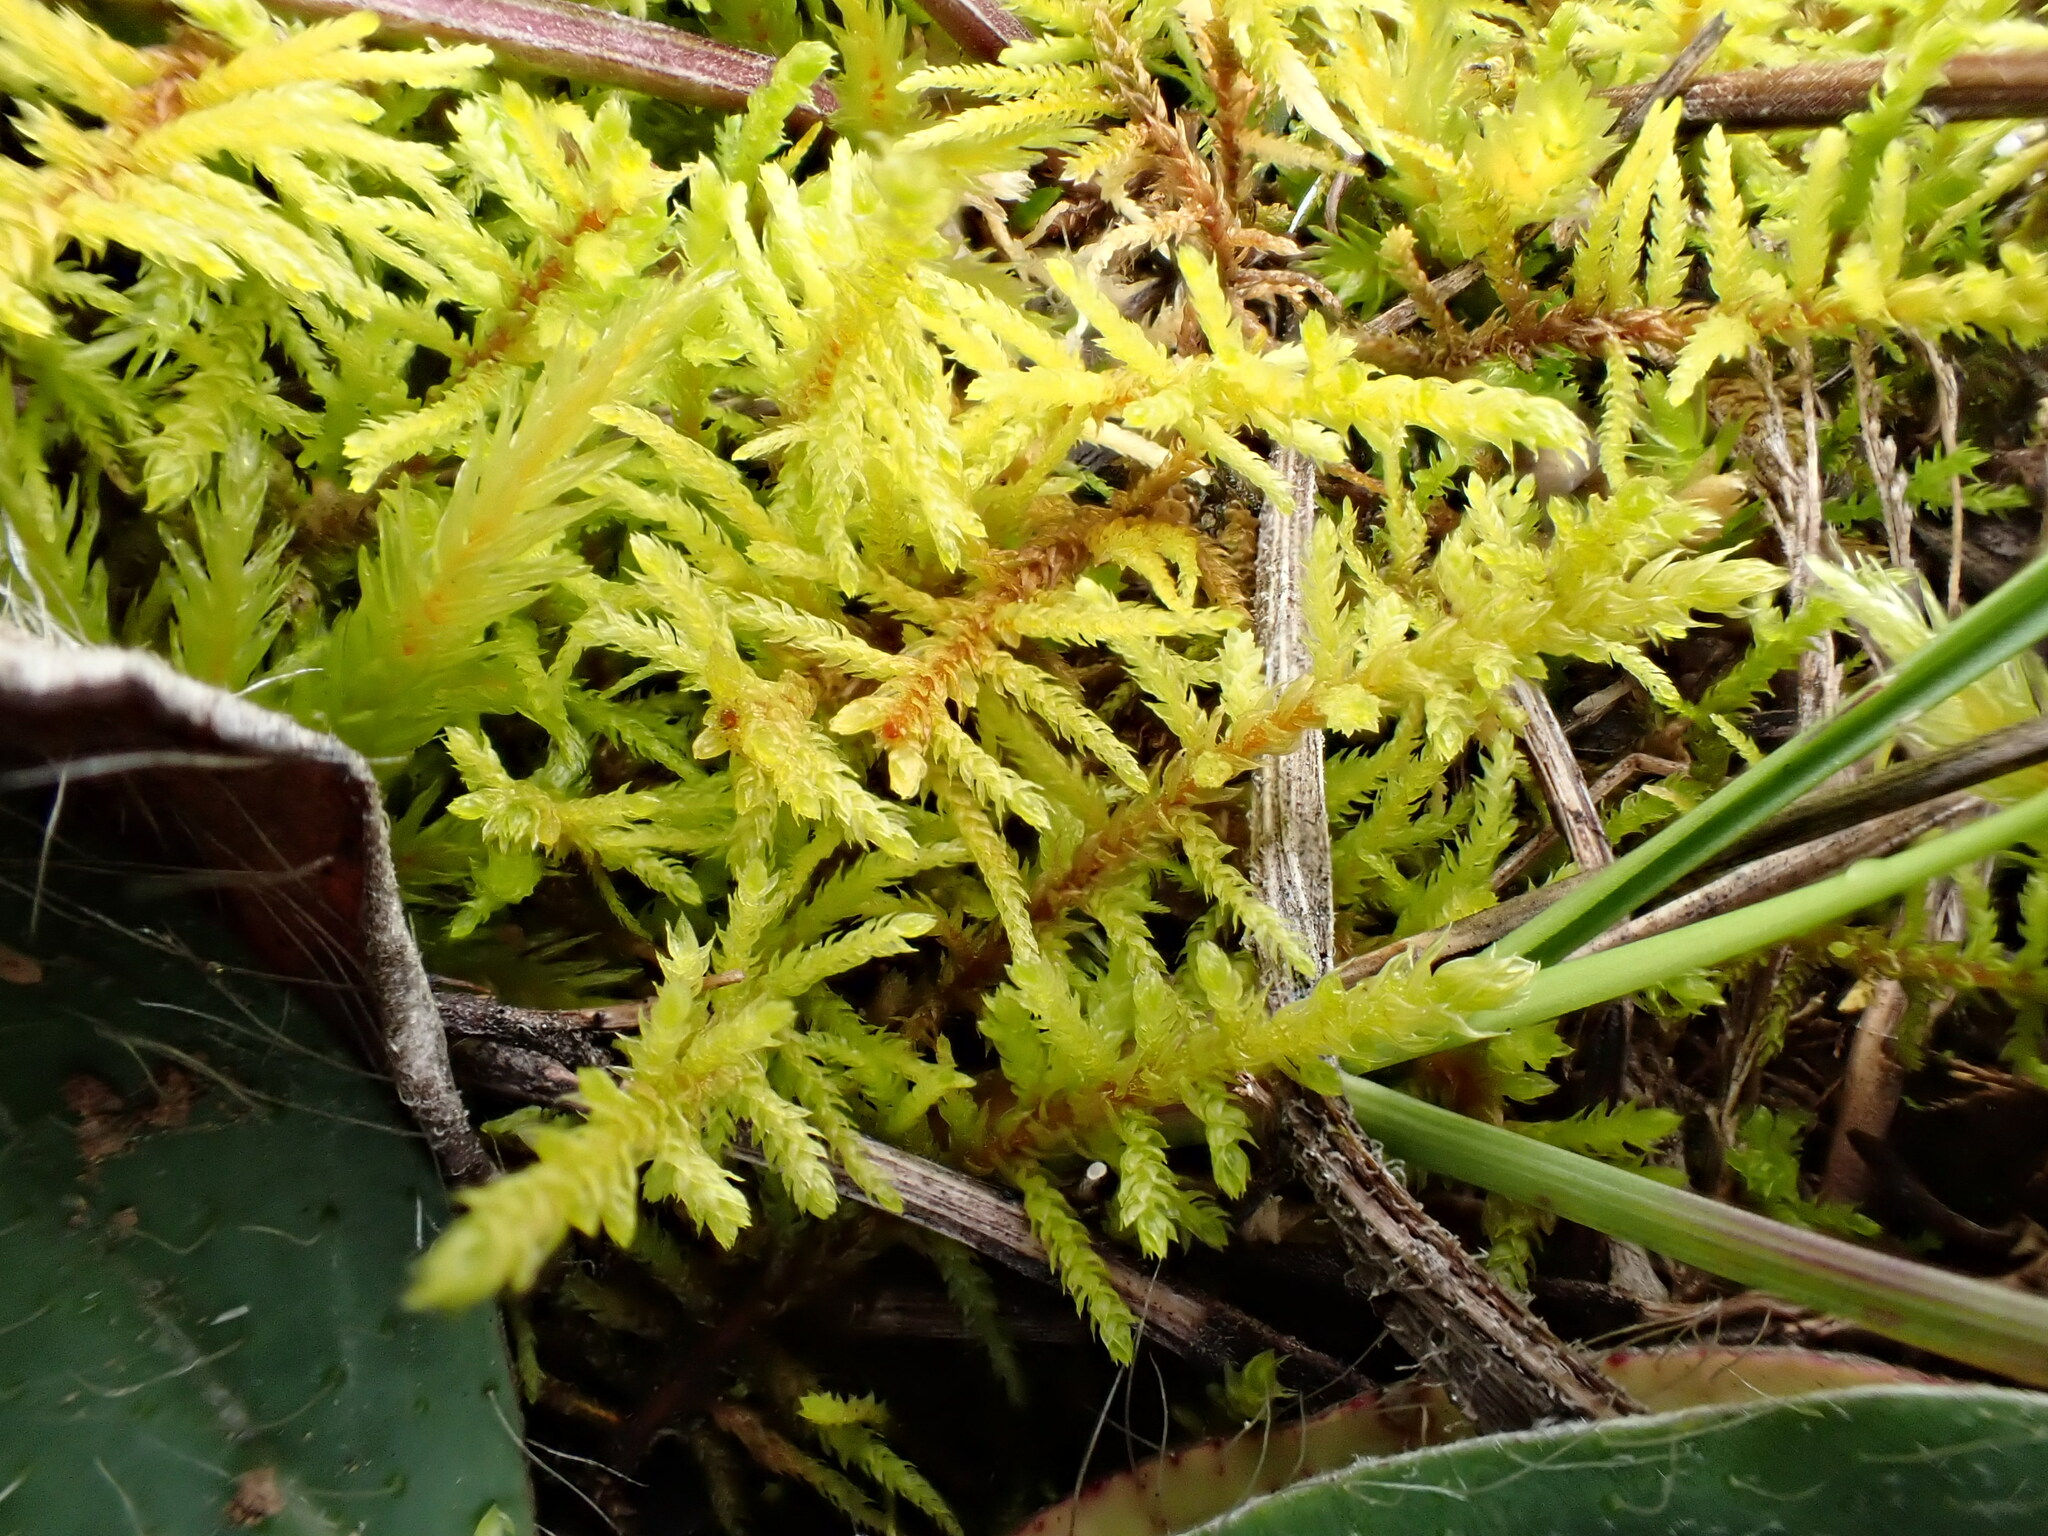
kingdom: Plantae
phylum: Bryophyta
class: Bryopsida
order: Hypnales
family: Thuidiaceae
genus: Abietinella
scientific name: Abietinella abietina
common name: Wiry fern moss
